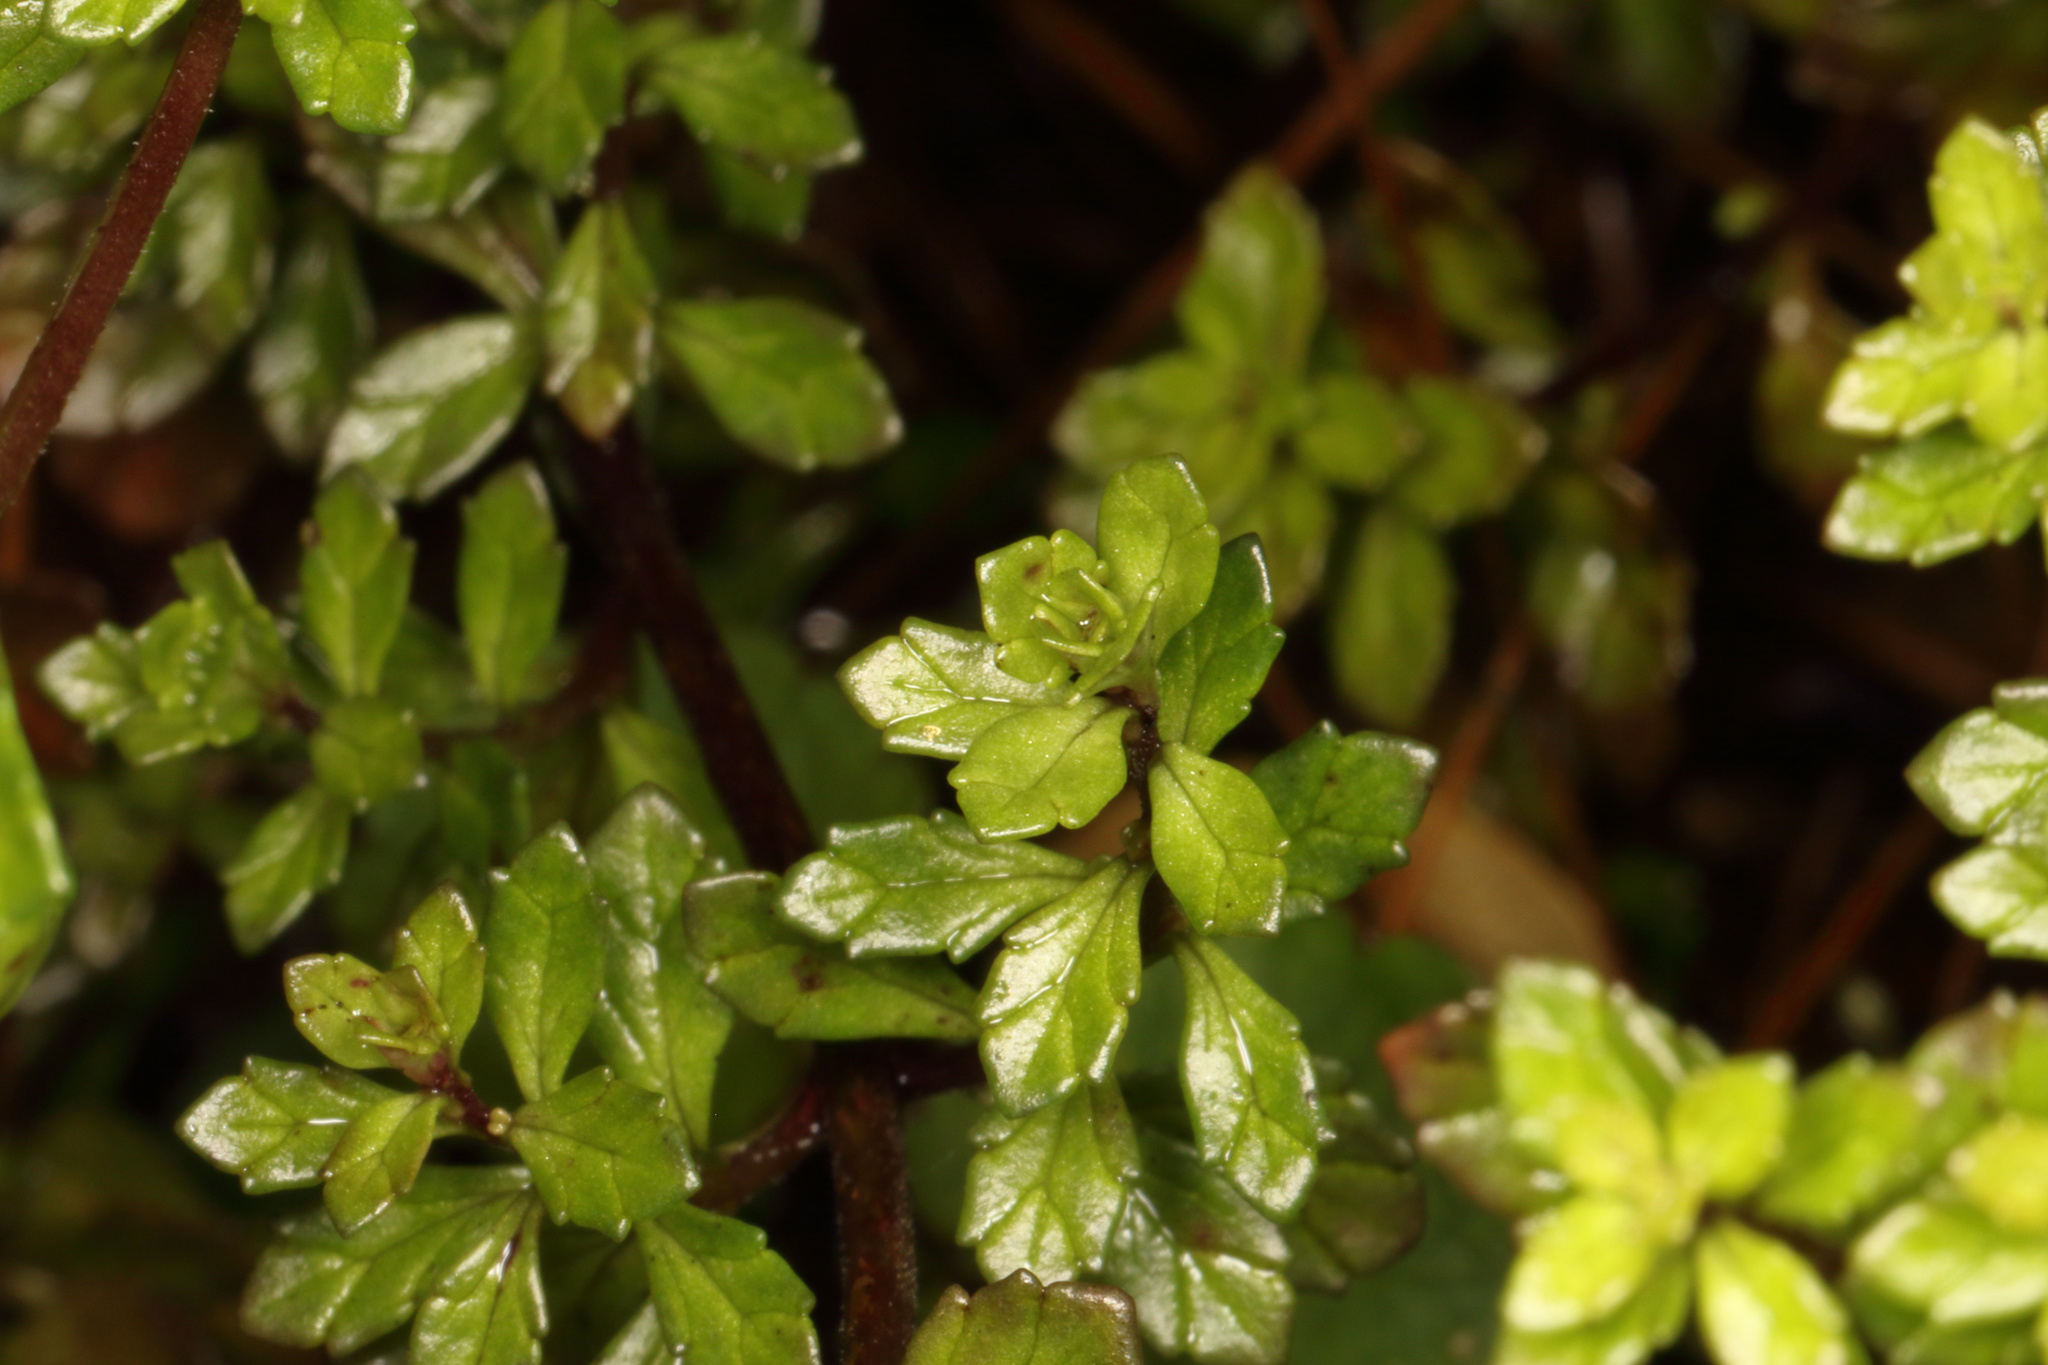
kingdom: Plantae
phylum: Tracheophyta
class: Magnoliopsida
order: Lamiales
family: Orobanchaceae
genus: Euphrasia
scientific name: Euphrasia cuneata
